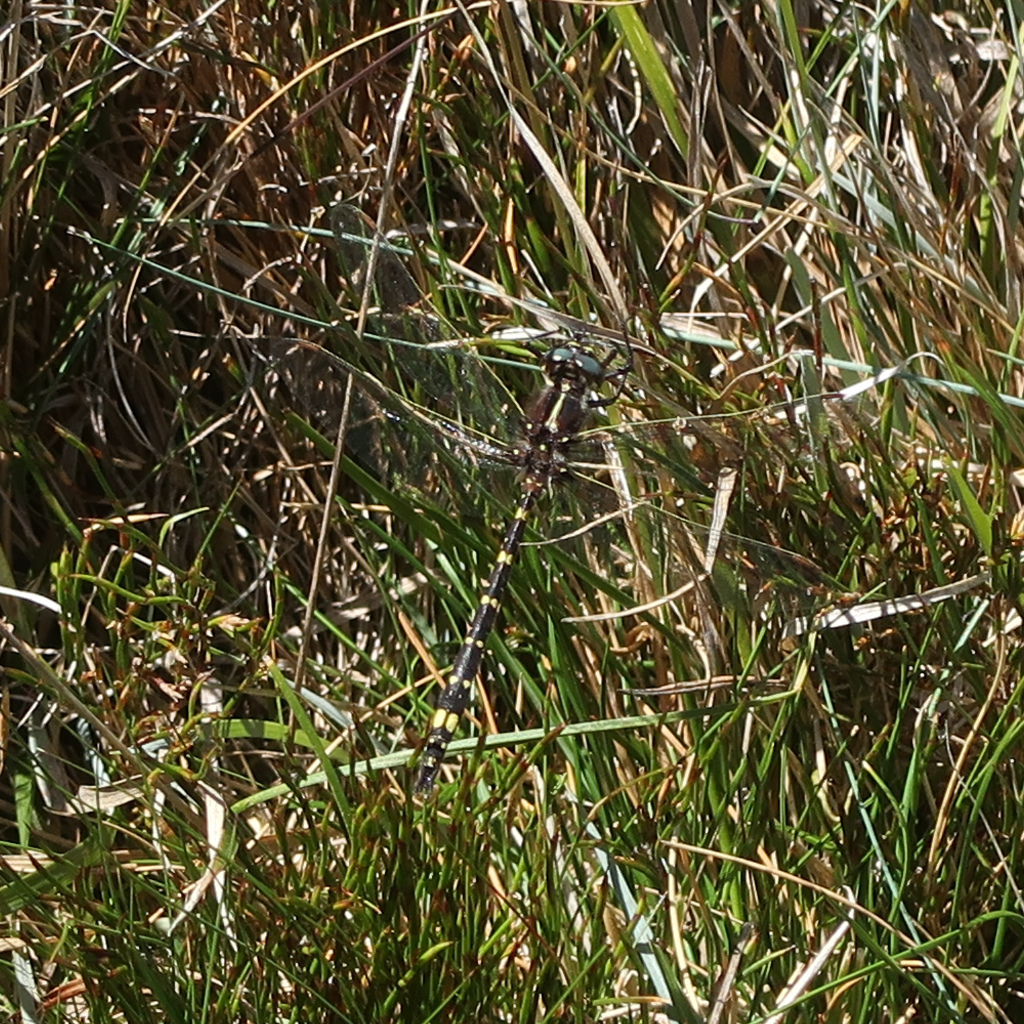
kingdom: Animalia
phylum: Arthropoda
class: Insecta
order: Odonata
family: Synthemistidae
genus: Synthemis
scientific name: Synthemis tasmanica
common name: Tasmanian swamp tigertail
